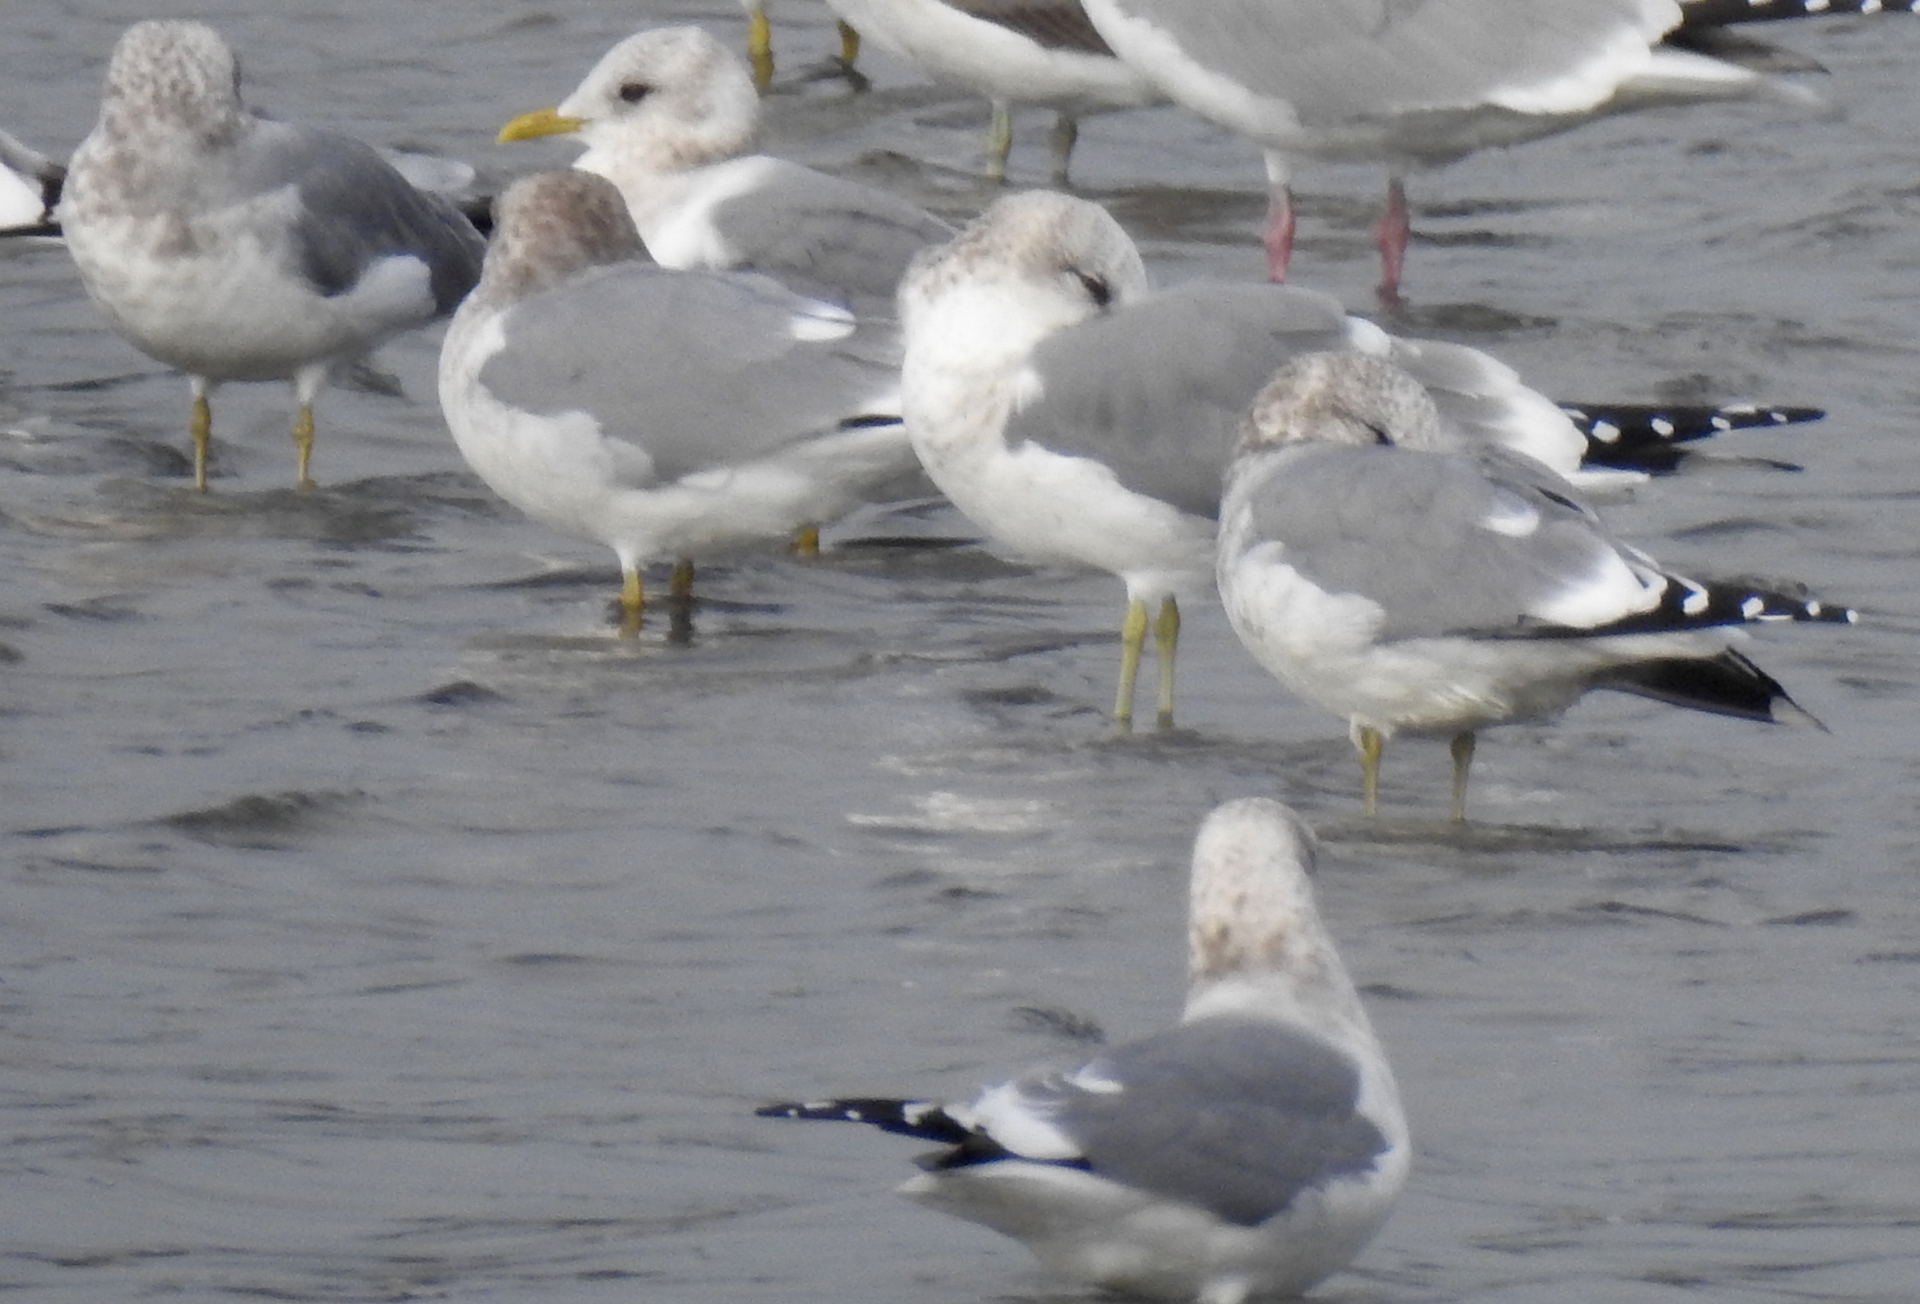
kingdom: Animalia
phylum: Chordata
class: Aves
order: Charadriiformes
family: Laridae
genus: Larus
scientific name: Larus brachyrhynchus
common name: Short-billed gull
